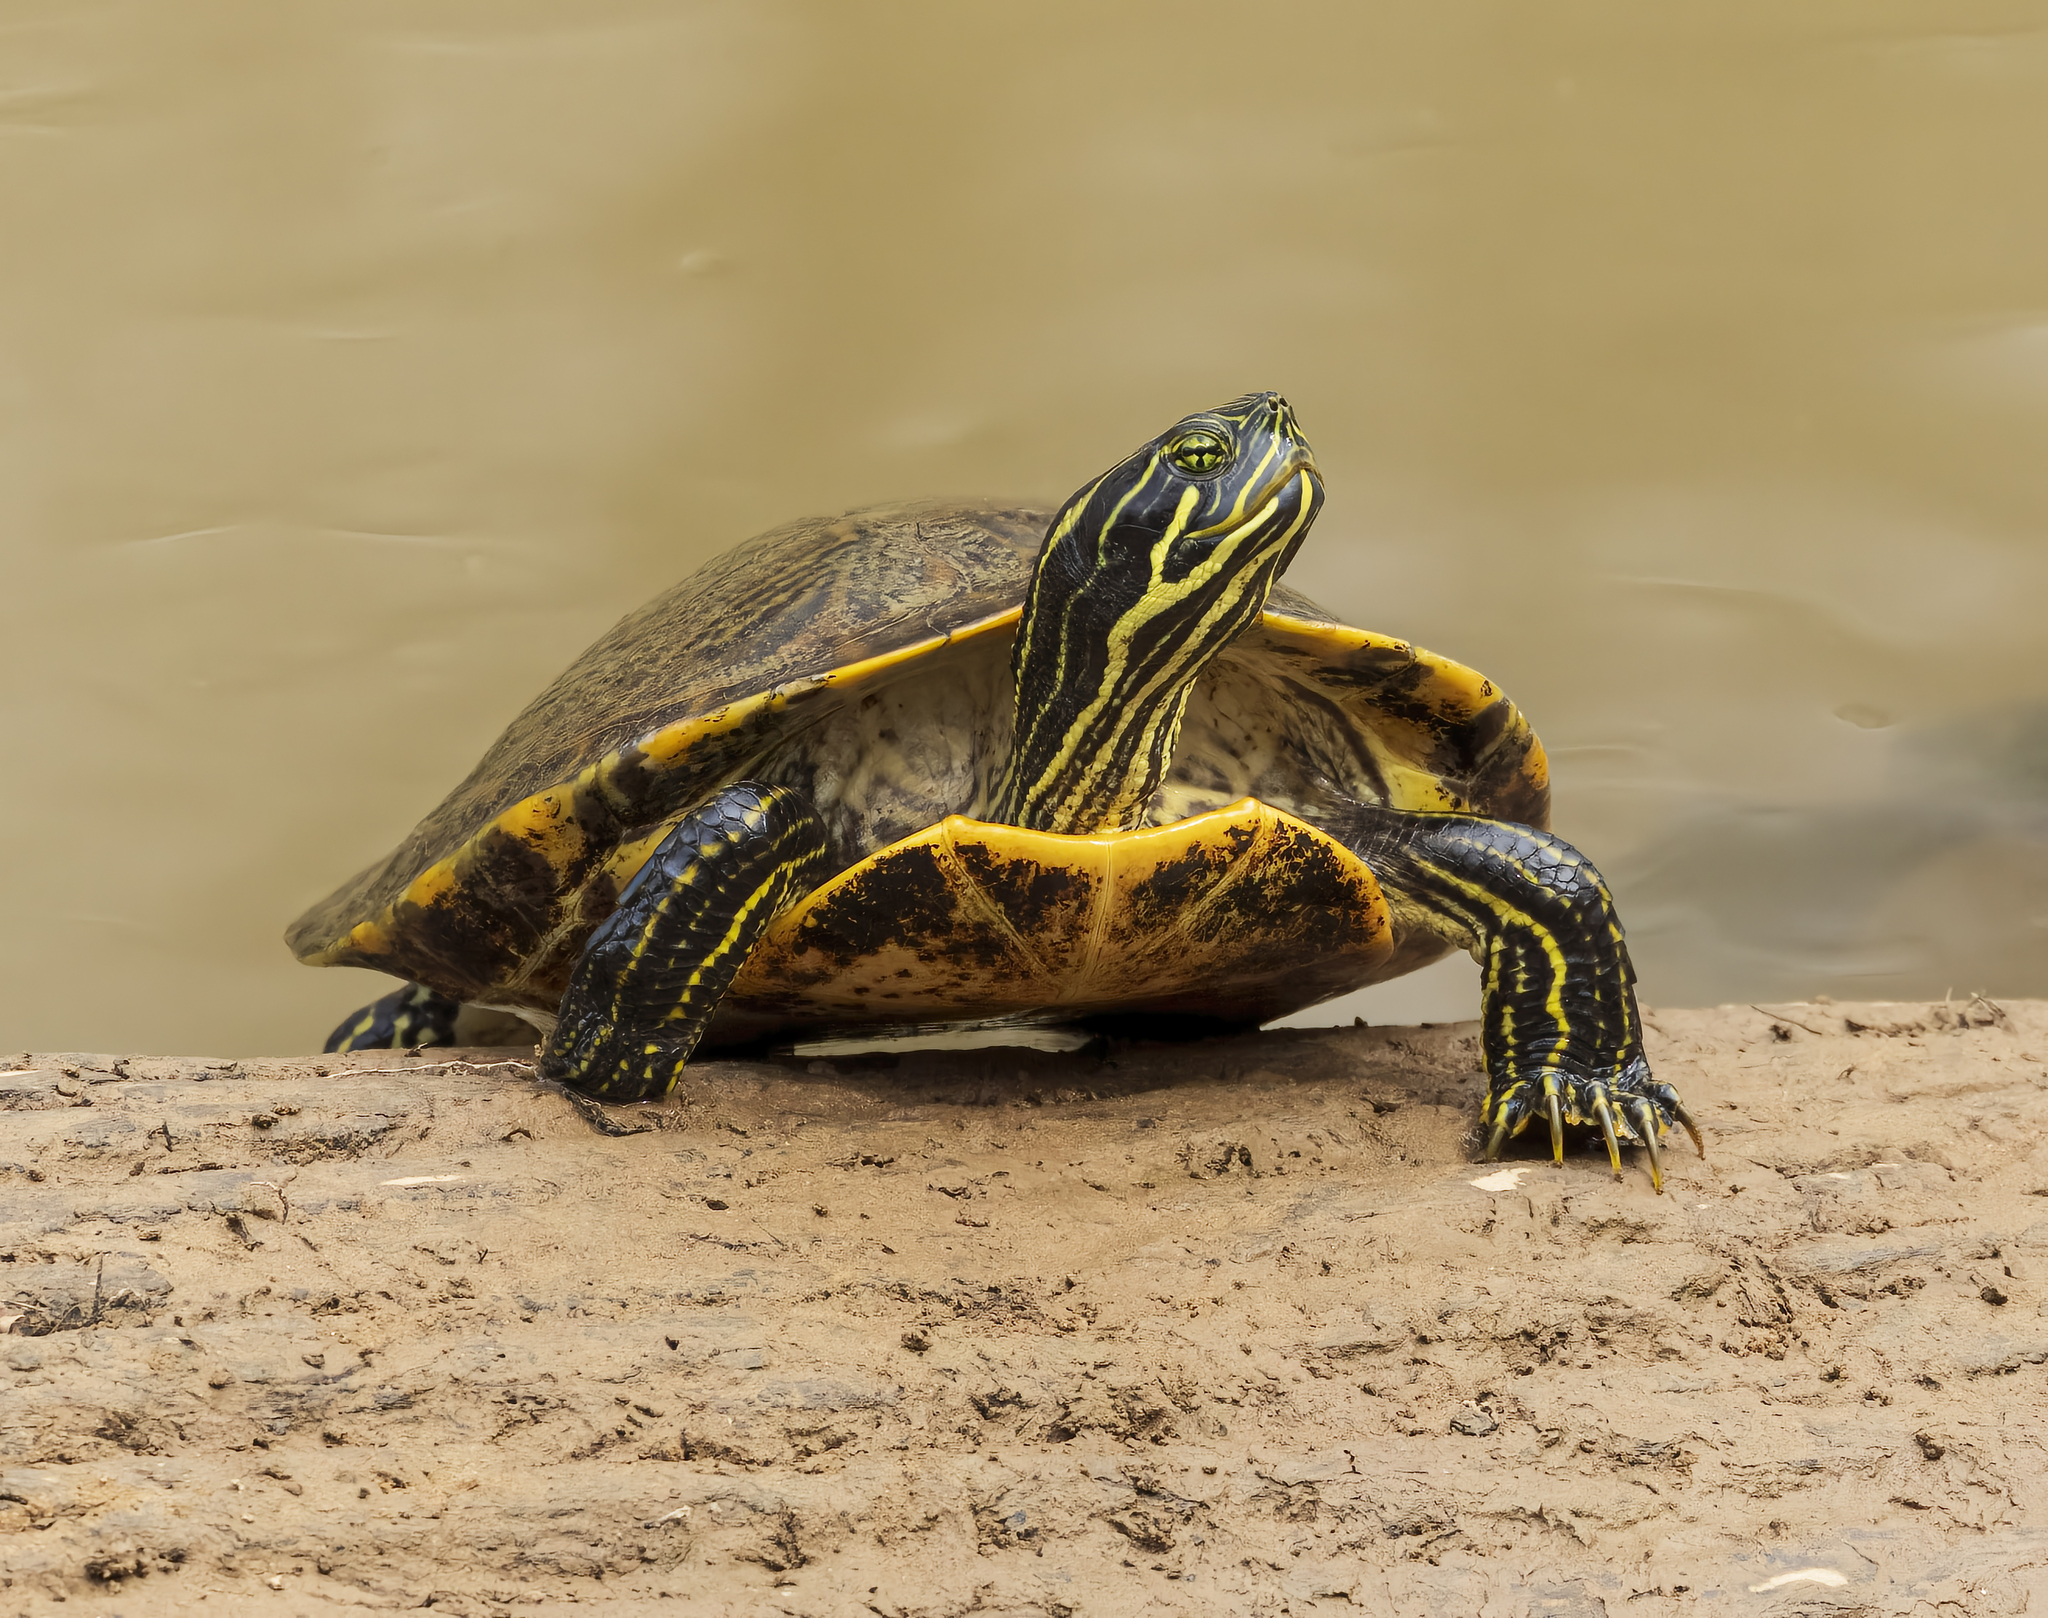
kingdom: Animalia
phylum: Chordata
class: Testudines
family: Emydidae
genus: Pseudemys
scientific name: Pseudemys concinna
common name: Eastern river cooter
